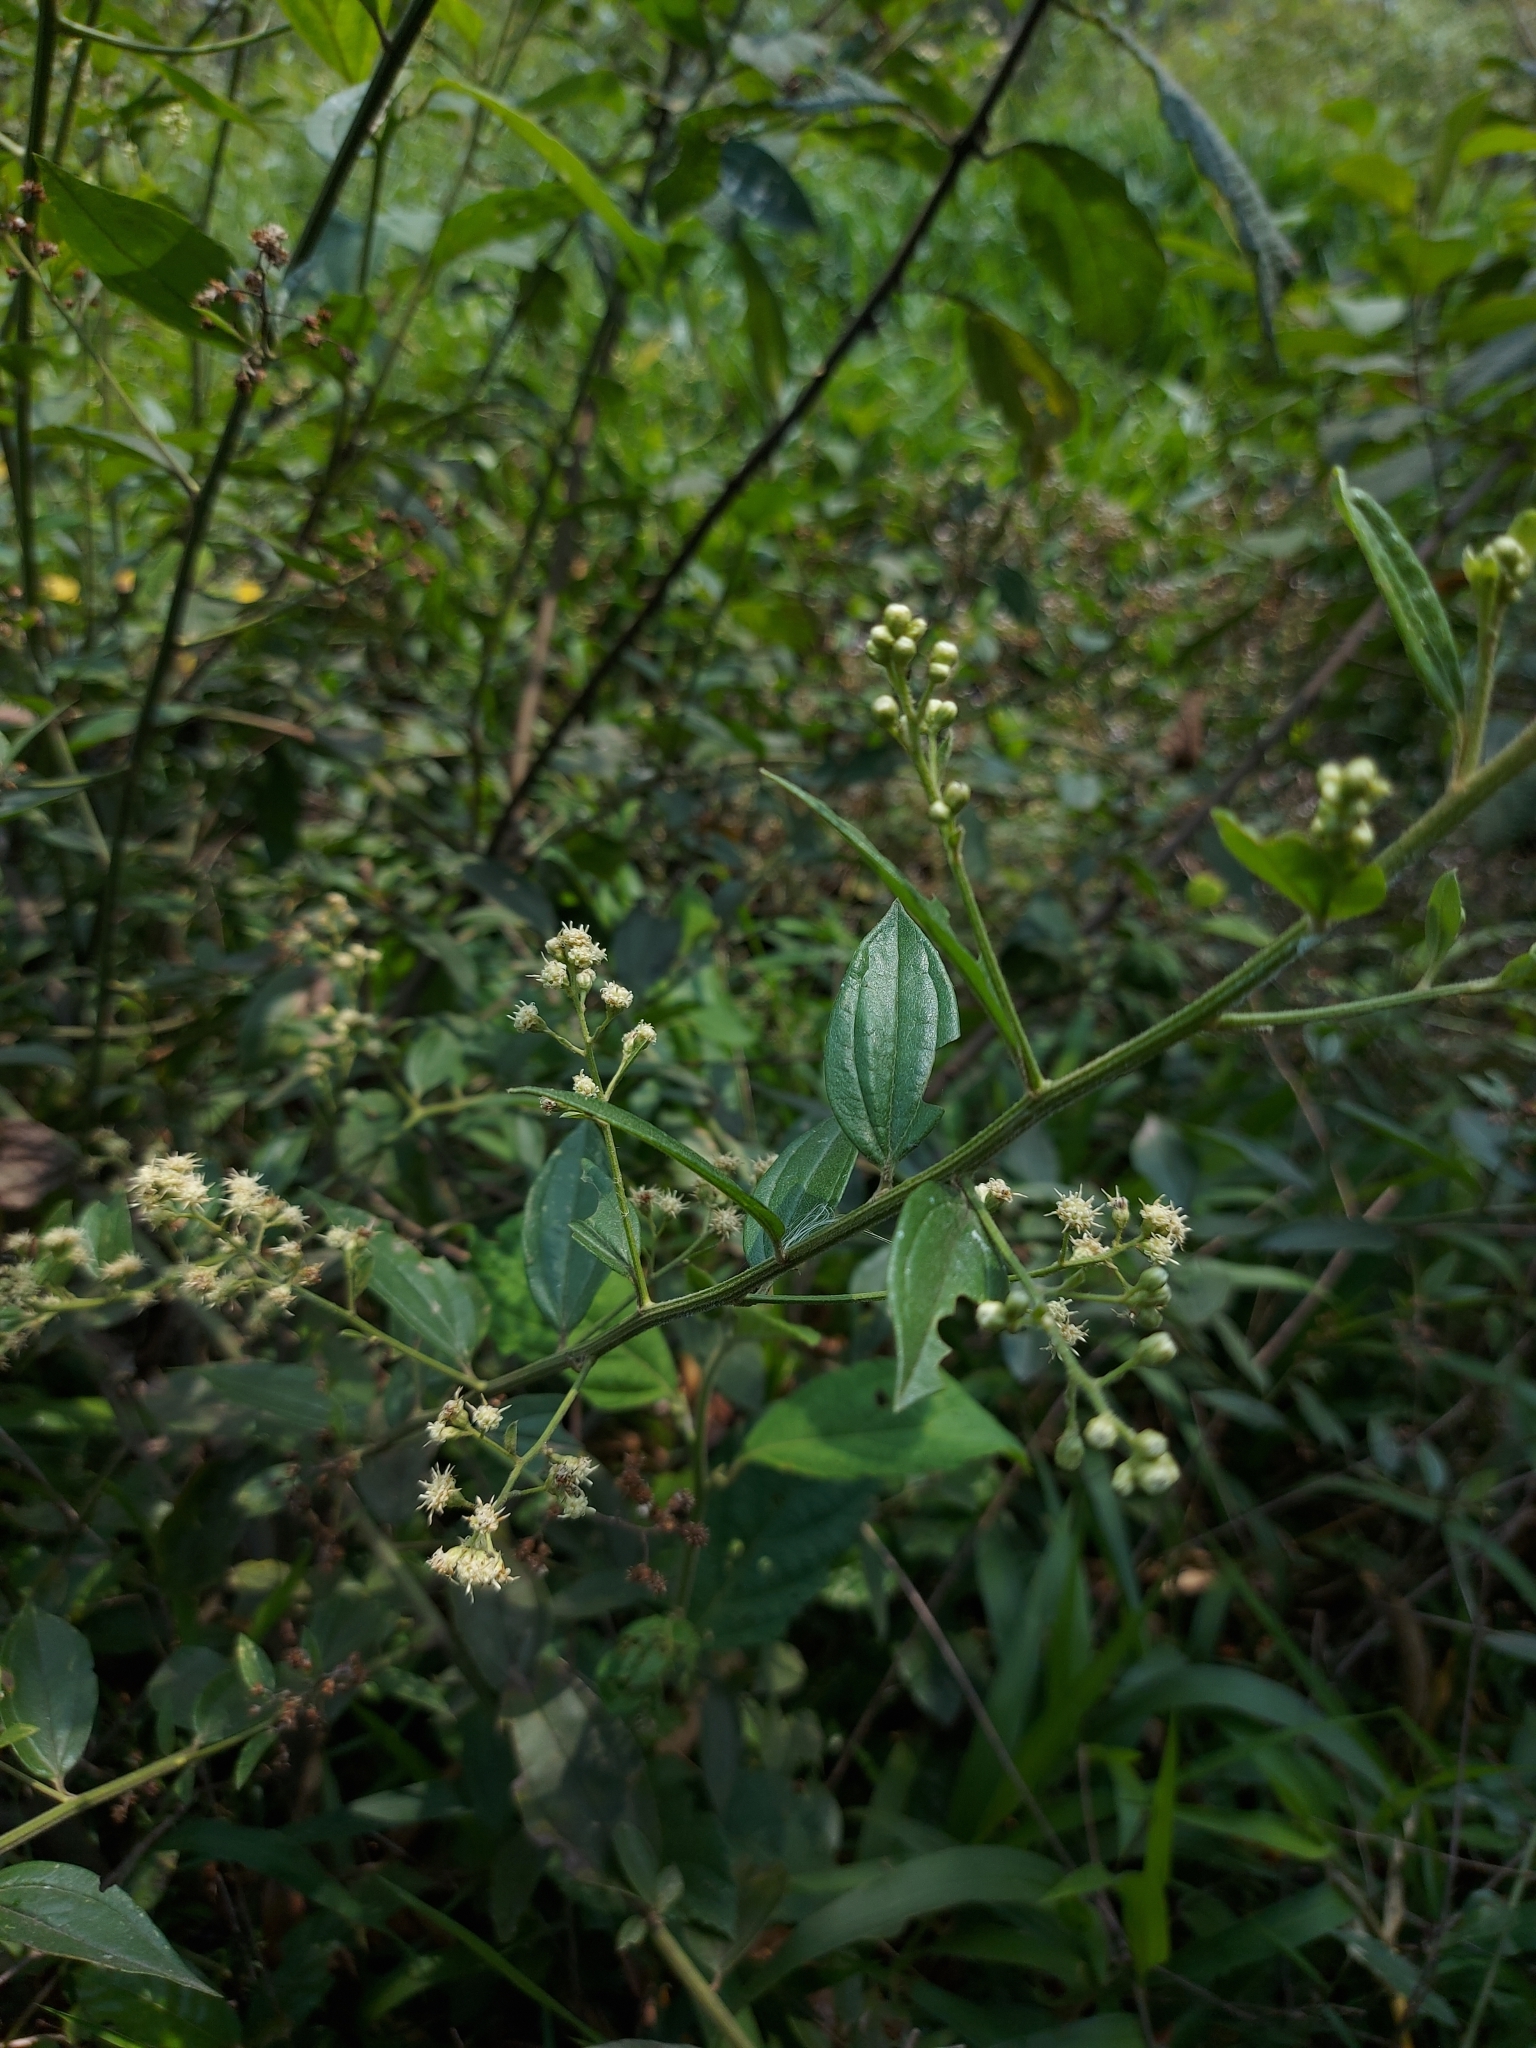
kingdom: Plantae
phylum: Tracheophyta
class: Magnoliopsida
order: Asterales
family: Asteraceae
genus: Baccharis
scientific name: Baccharis trinervis
